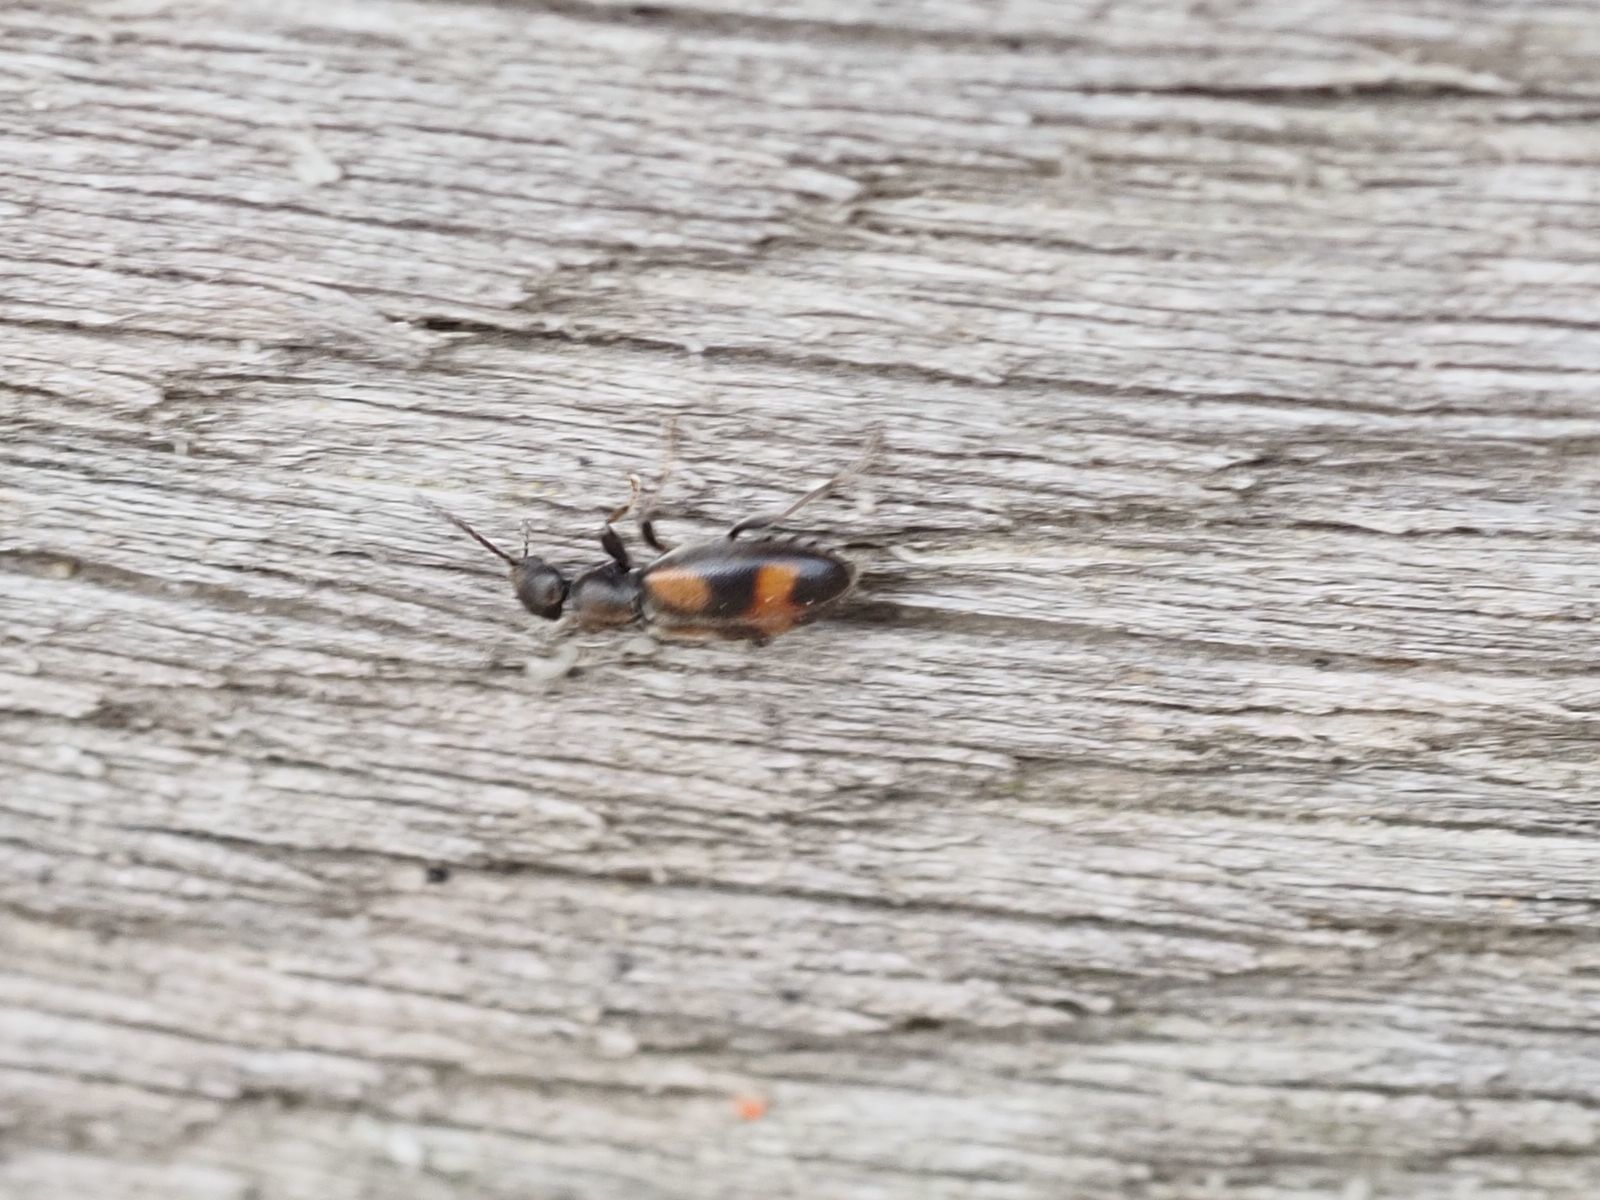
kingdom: Animalia
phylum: Arthropoda
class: Insecta
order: Coleoptera
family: Anthicidae
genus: Anthicus
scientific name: Anthicus antherinus
